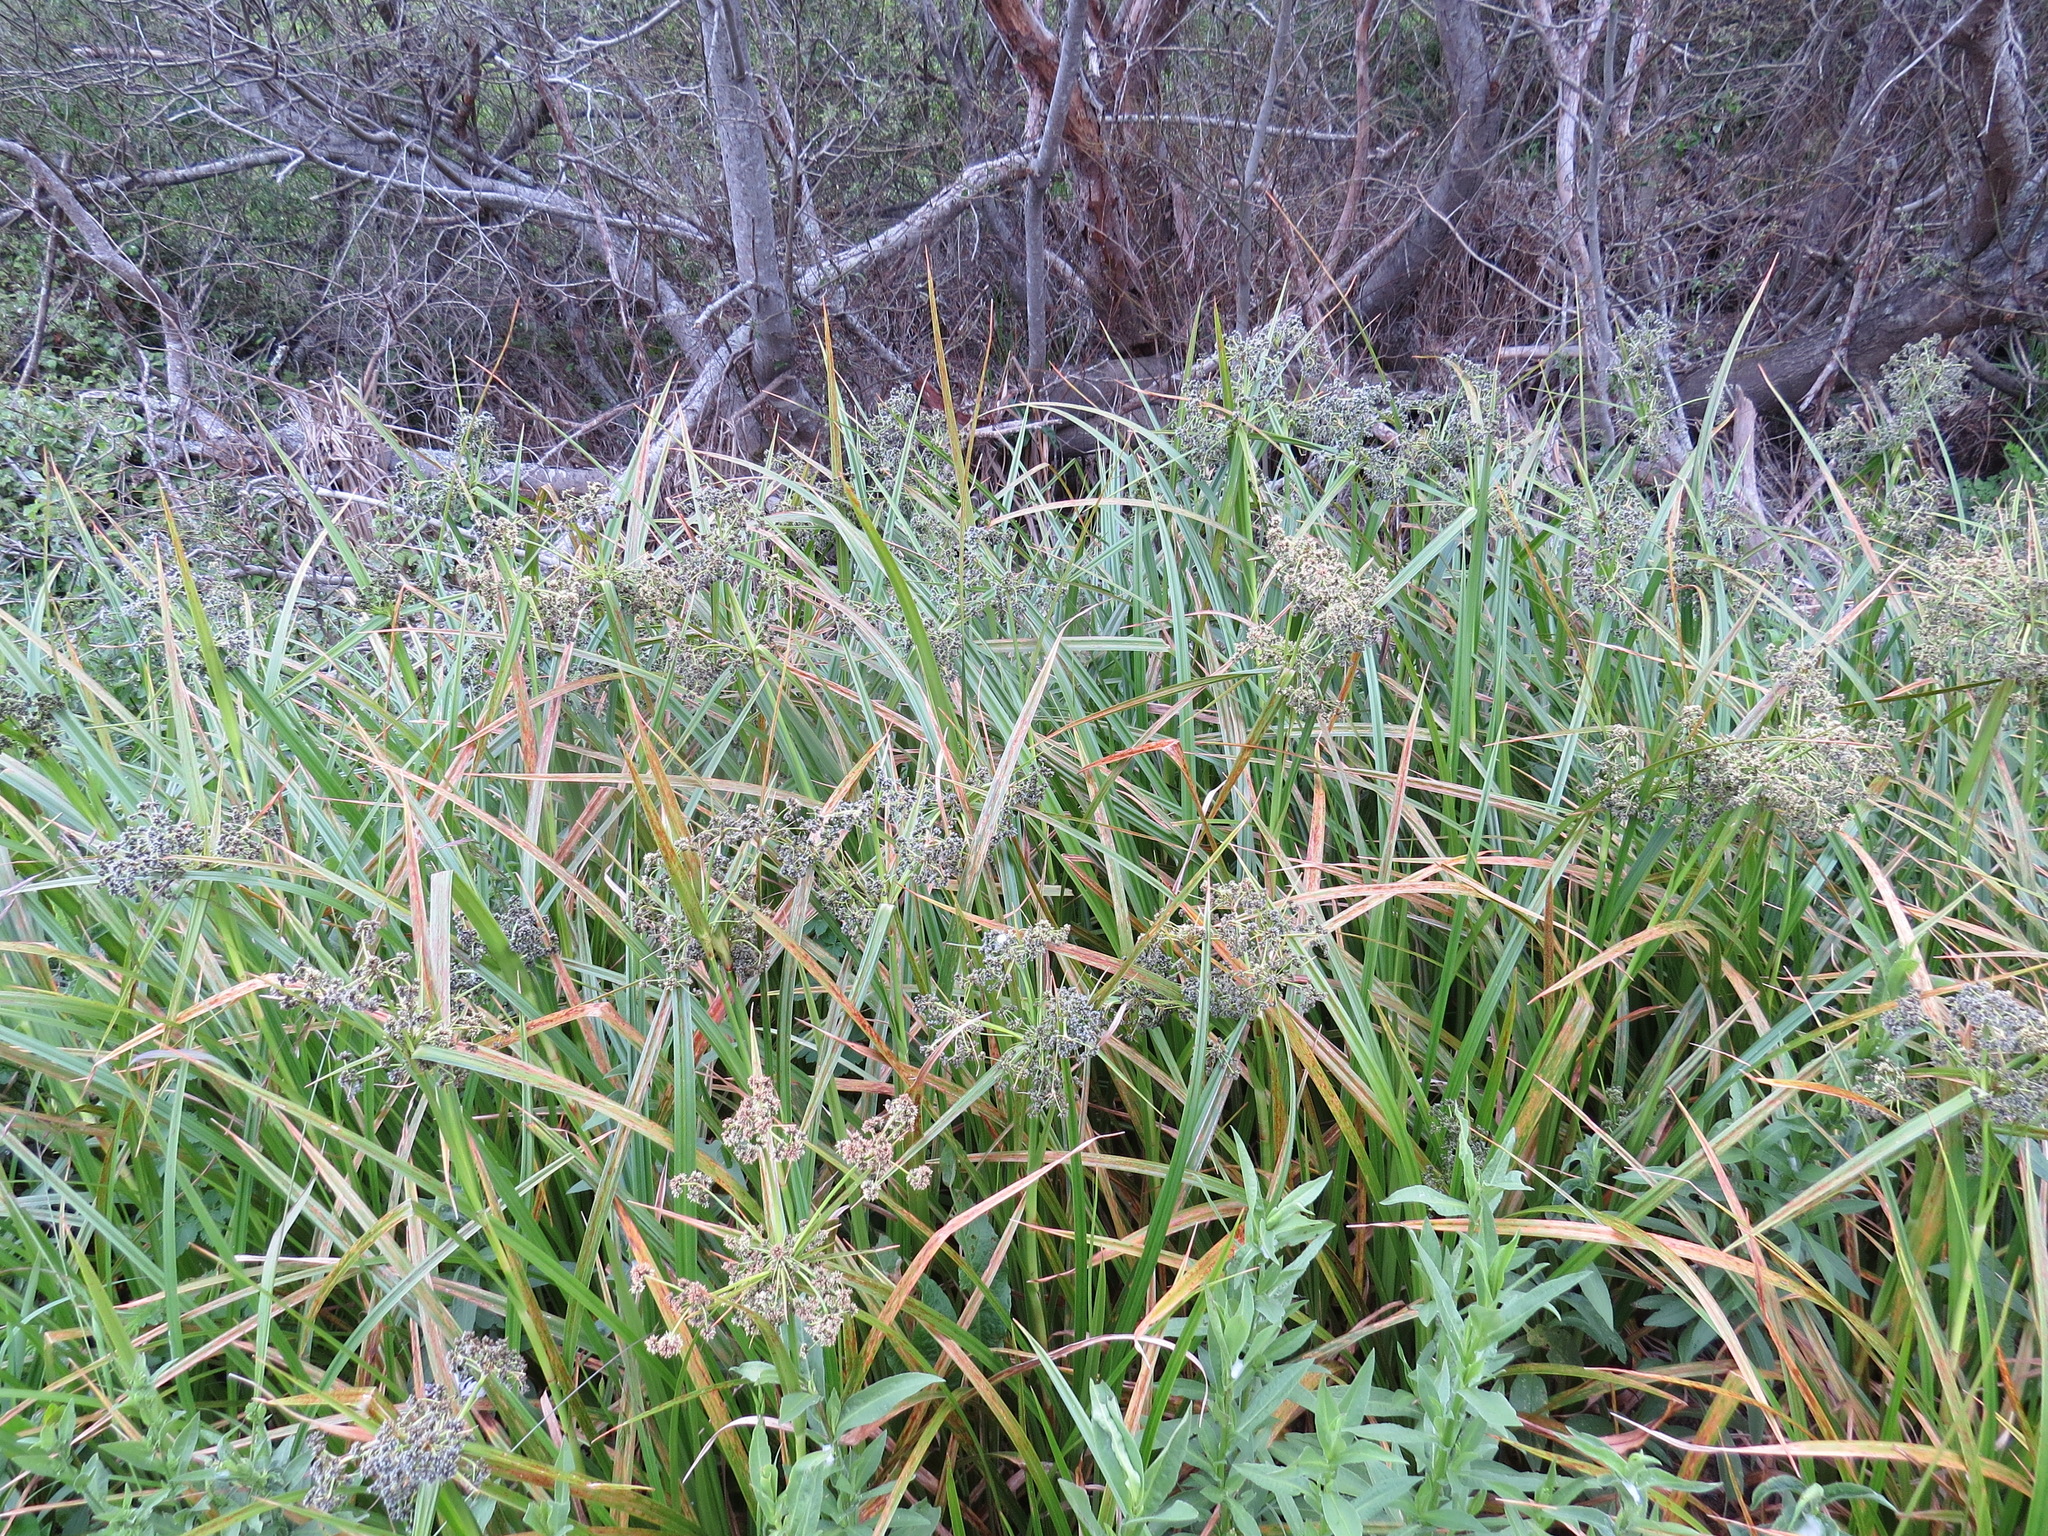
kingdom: Plantae
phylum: Tracheophyta
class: Liliopsida
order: Poales
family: Cyperaceae
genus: Scirpus
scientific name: Scirpus microcarpus
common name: Panicled bulrush
